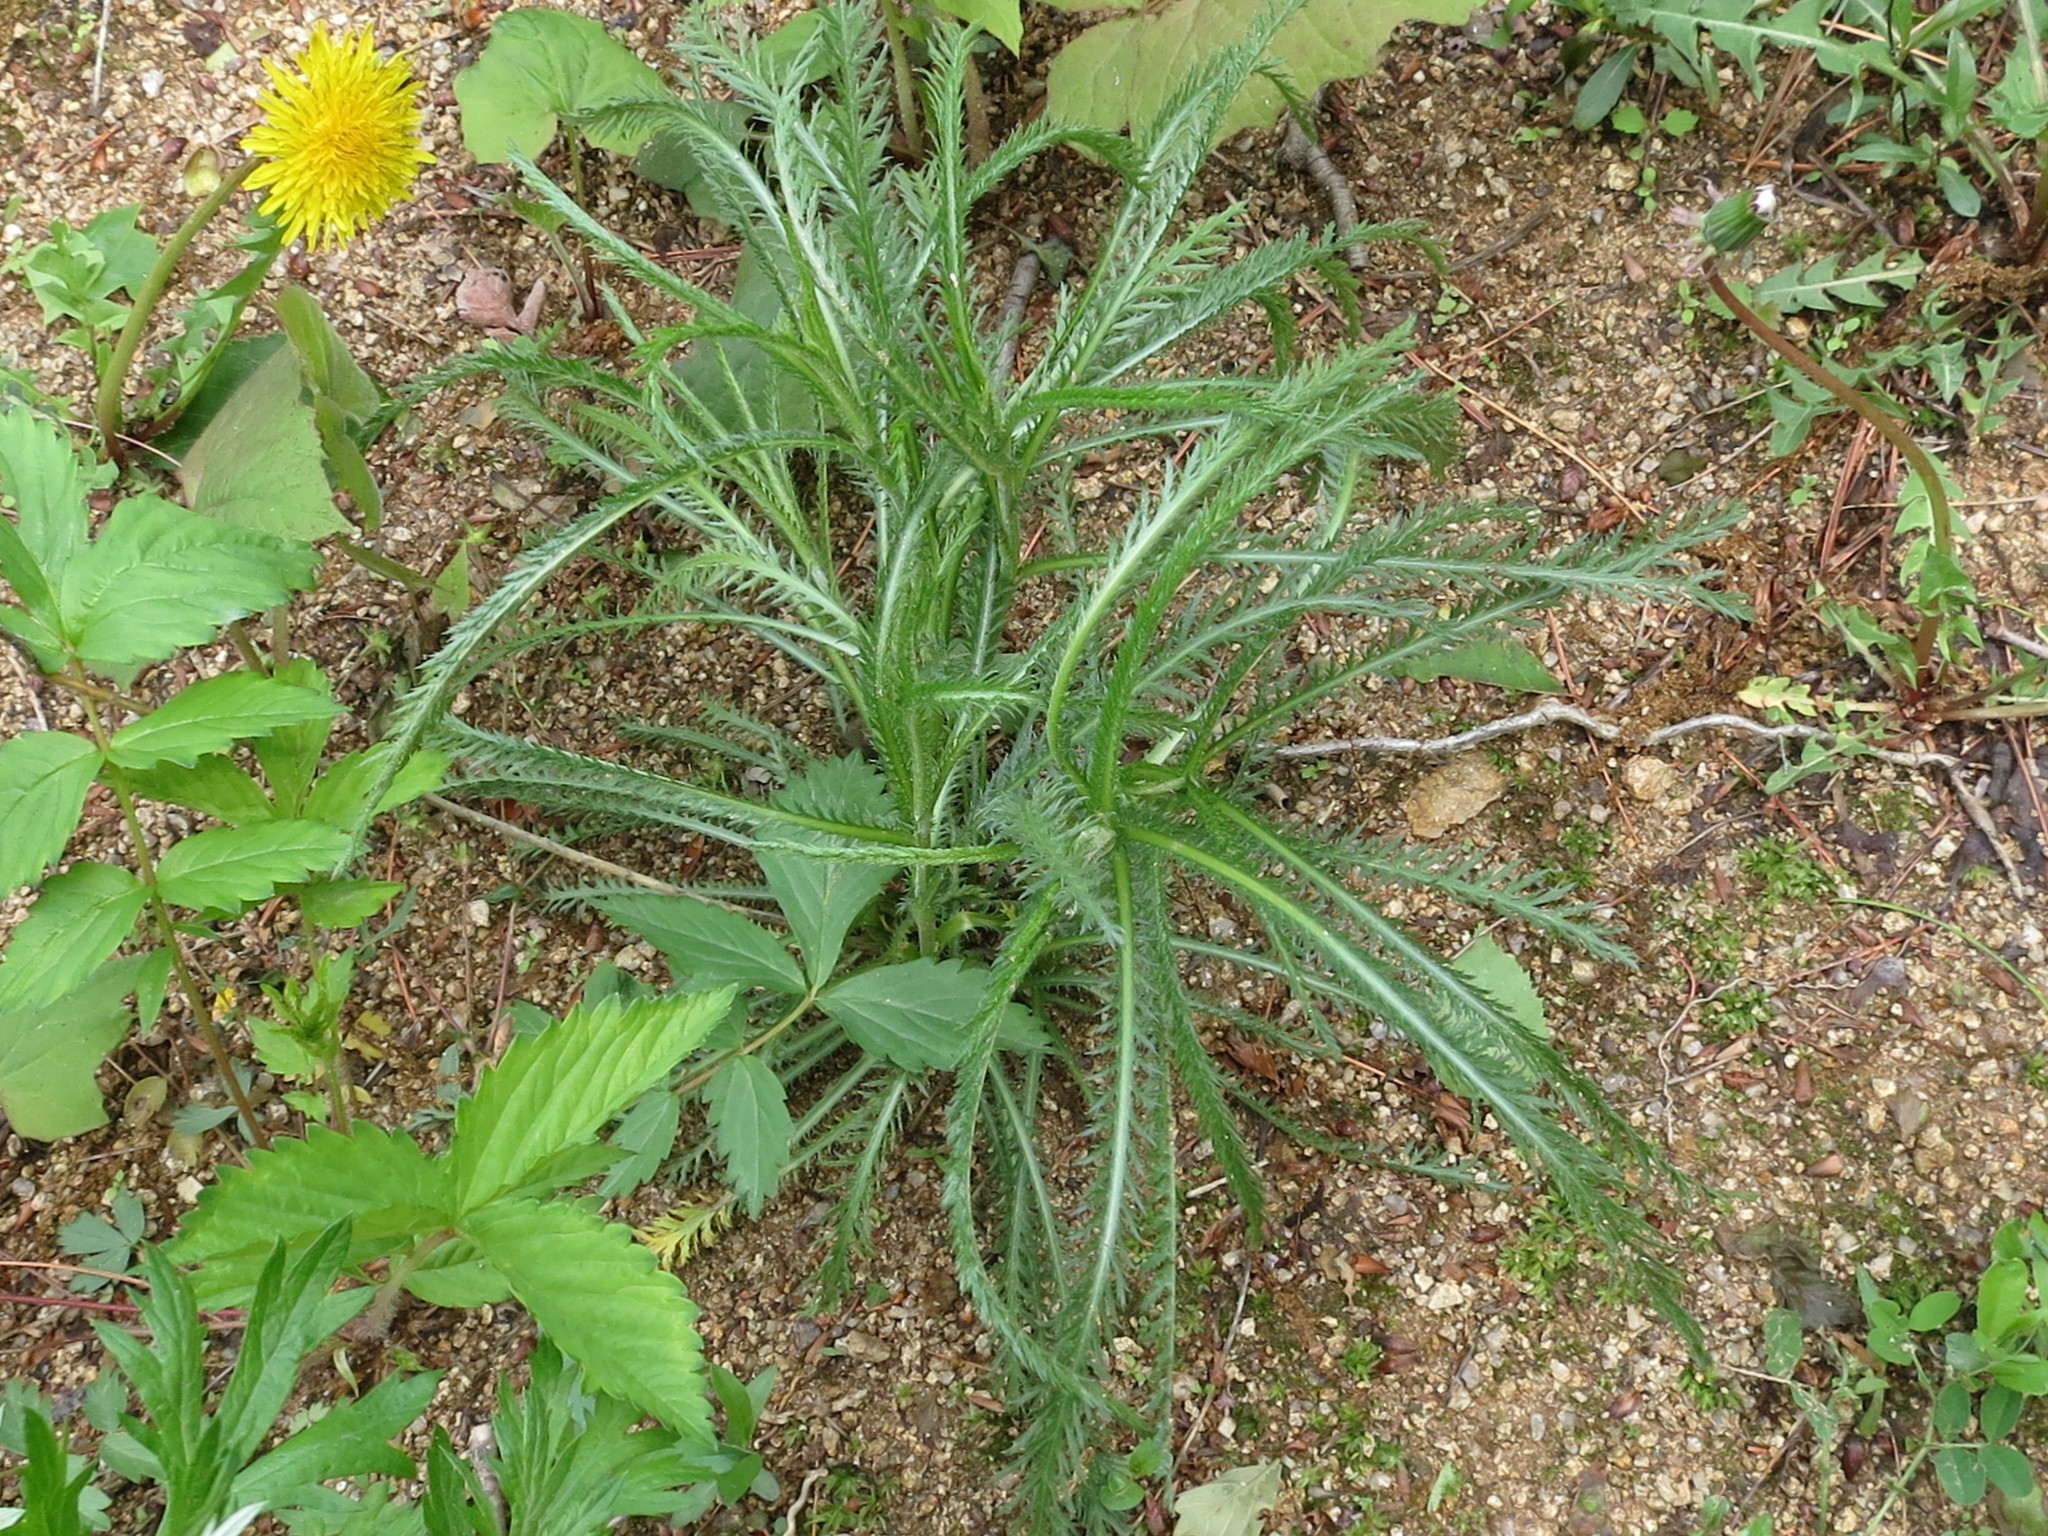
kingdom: Plantae
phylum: Tracheophyta
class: Magnoliopsida
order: Asterales
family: Asteraceae
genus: Achillea
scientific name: Achillea ptarmicoides
